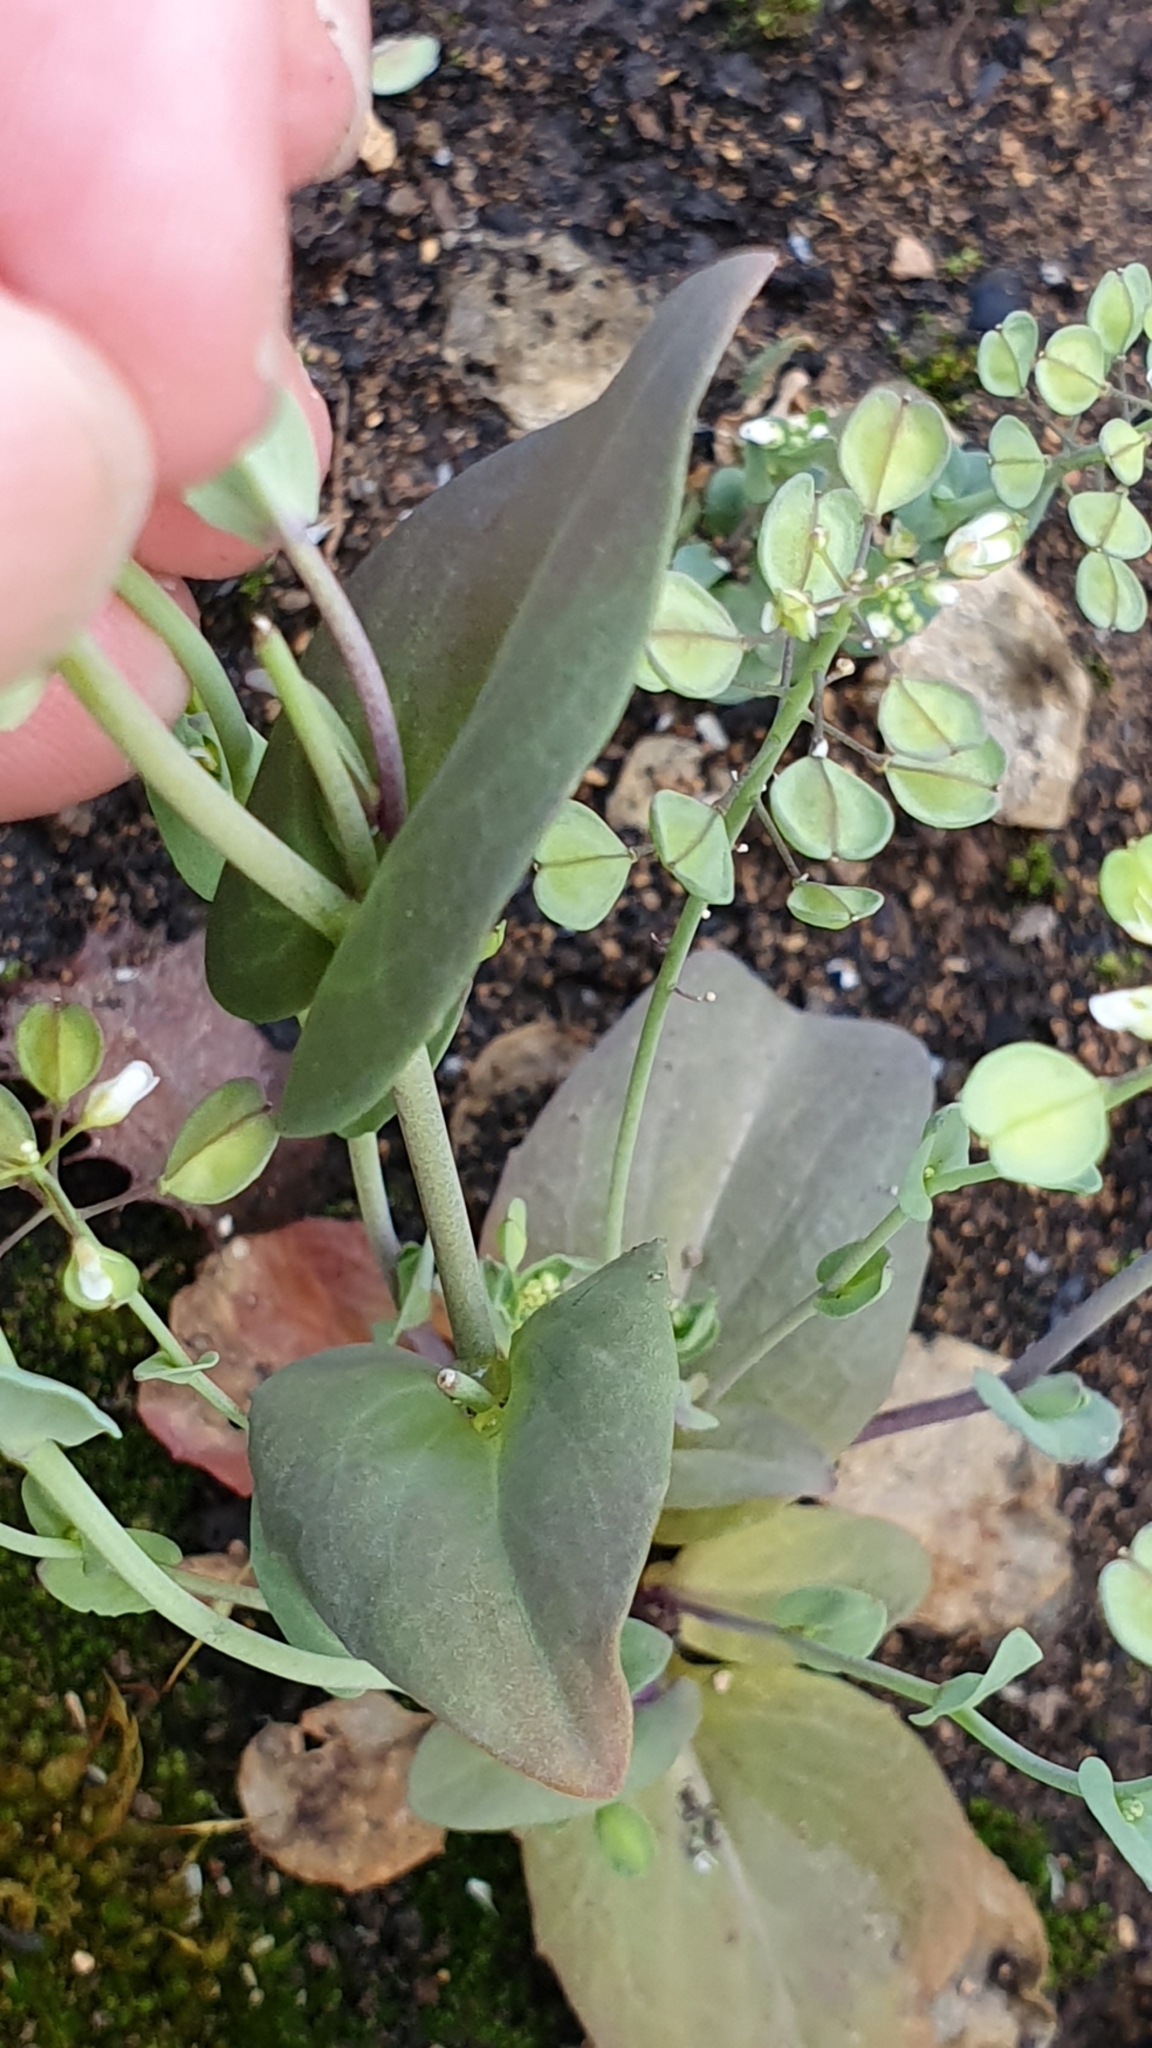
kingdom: Plantae
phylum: Tracheophyta
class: Magnoliopsida
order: Brassicales
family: Brassicaceae
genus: Noccaea
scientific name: Noccaea perfoliata
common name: Perfoliate pennycress
